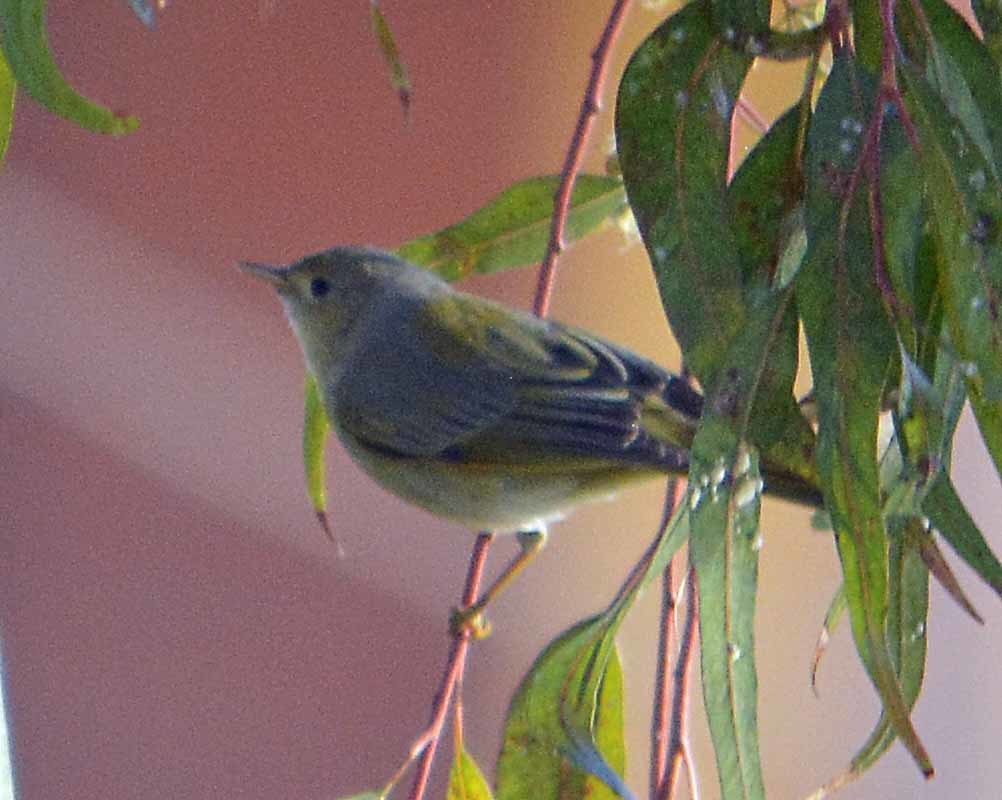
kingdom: Animalia
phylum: Chordata
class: Aves
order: Passeriformes
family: Parulidae
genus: Setophaga
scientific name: Setophaga petechia
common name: Yellow warbler
